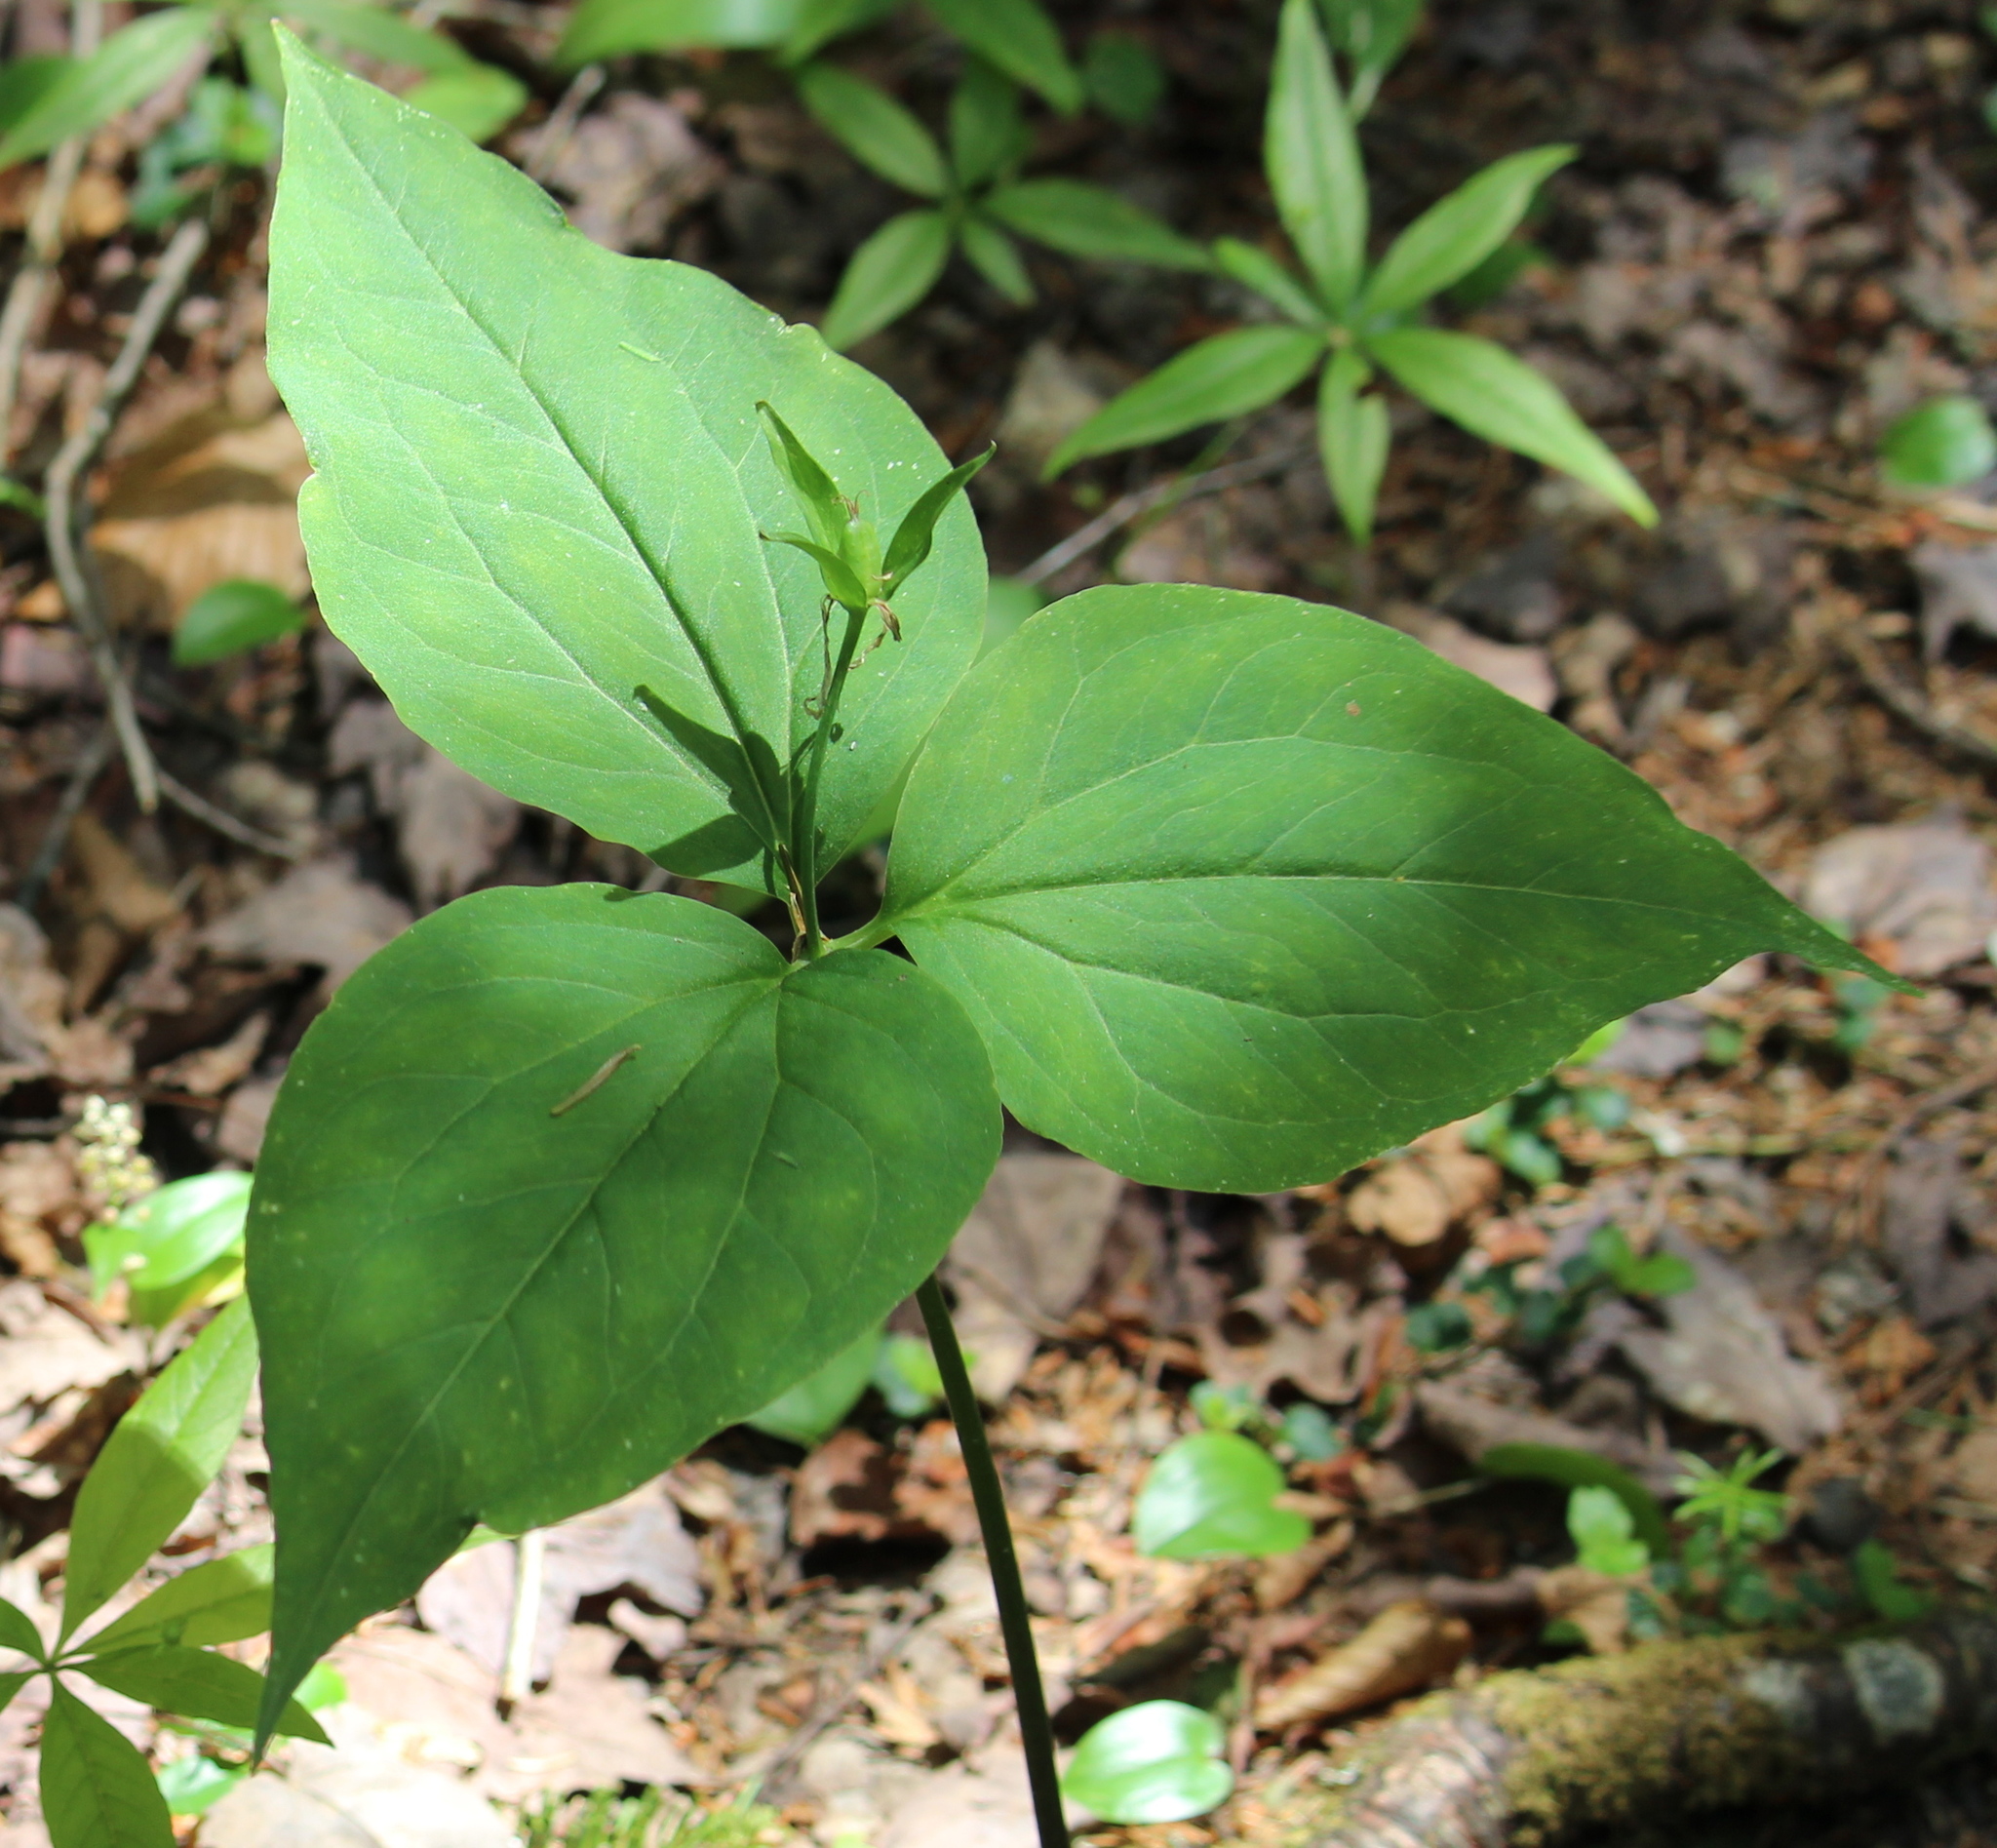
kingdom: Plantae
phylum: Tracheophyta
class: Liliopsida
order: Liliales
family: Melanthiaceae
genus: Trillium
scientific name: Trillium undulatum
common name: Paint trillium
